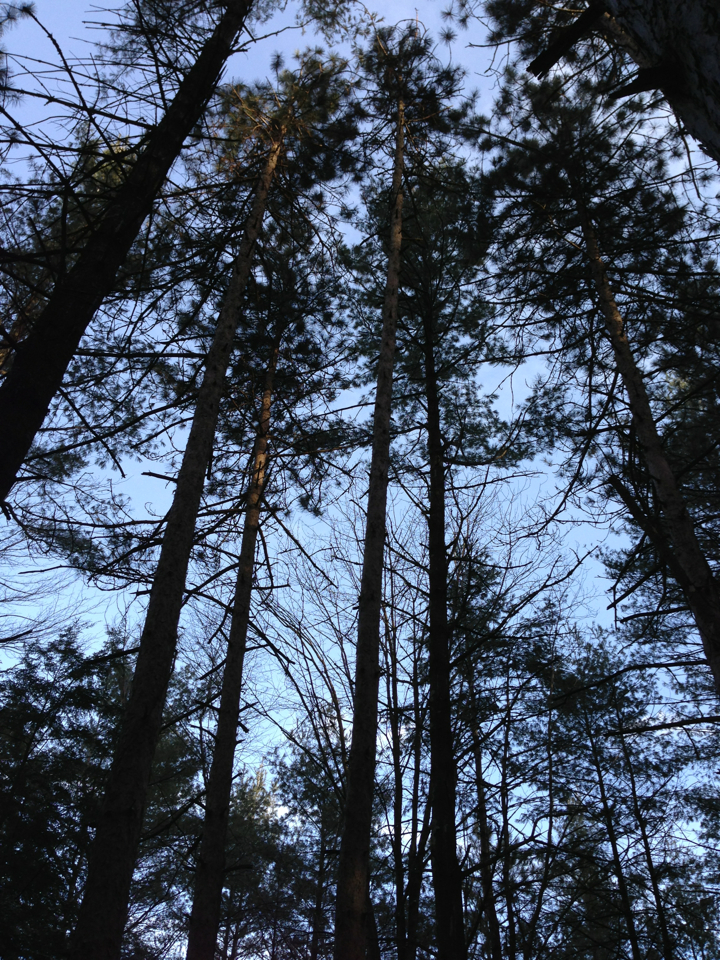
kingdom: Plantae
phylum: Tracheophyta
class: Pinopsida
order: Pinales
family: Pinaceae
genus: Pinus
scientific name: Pinus resinosa
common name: Norway pine
